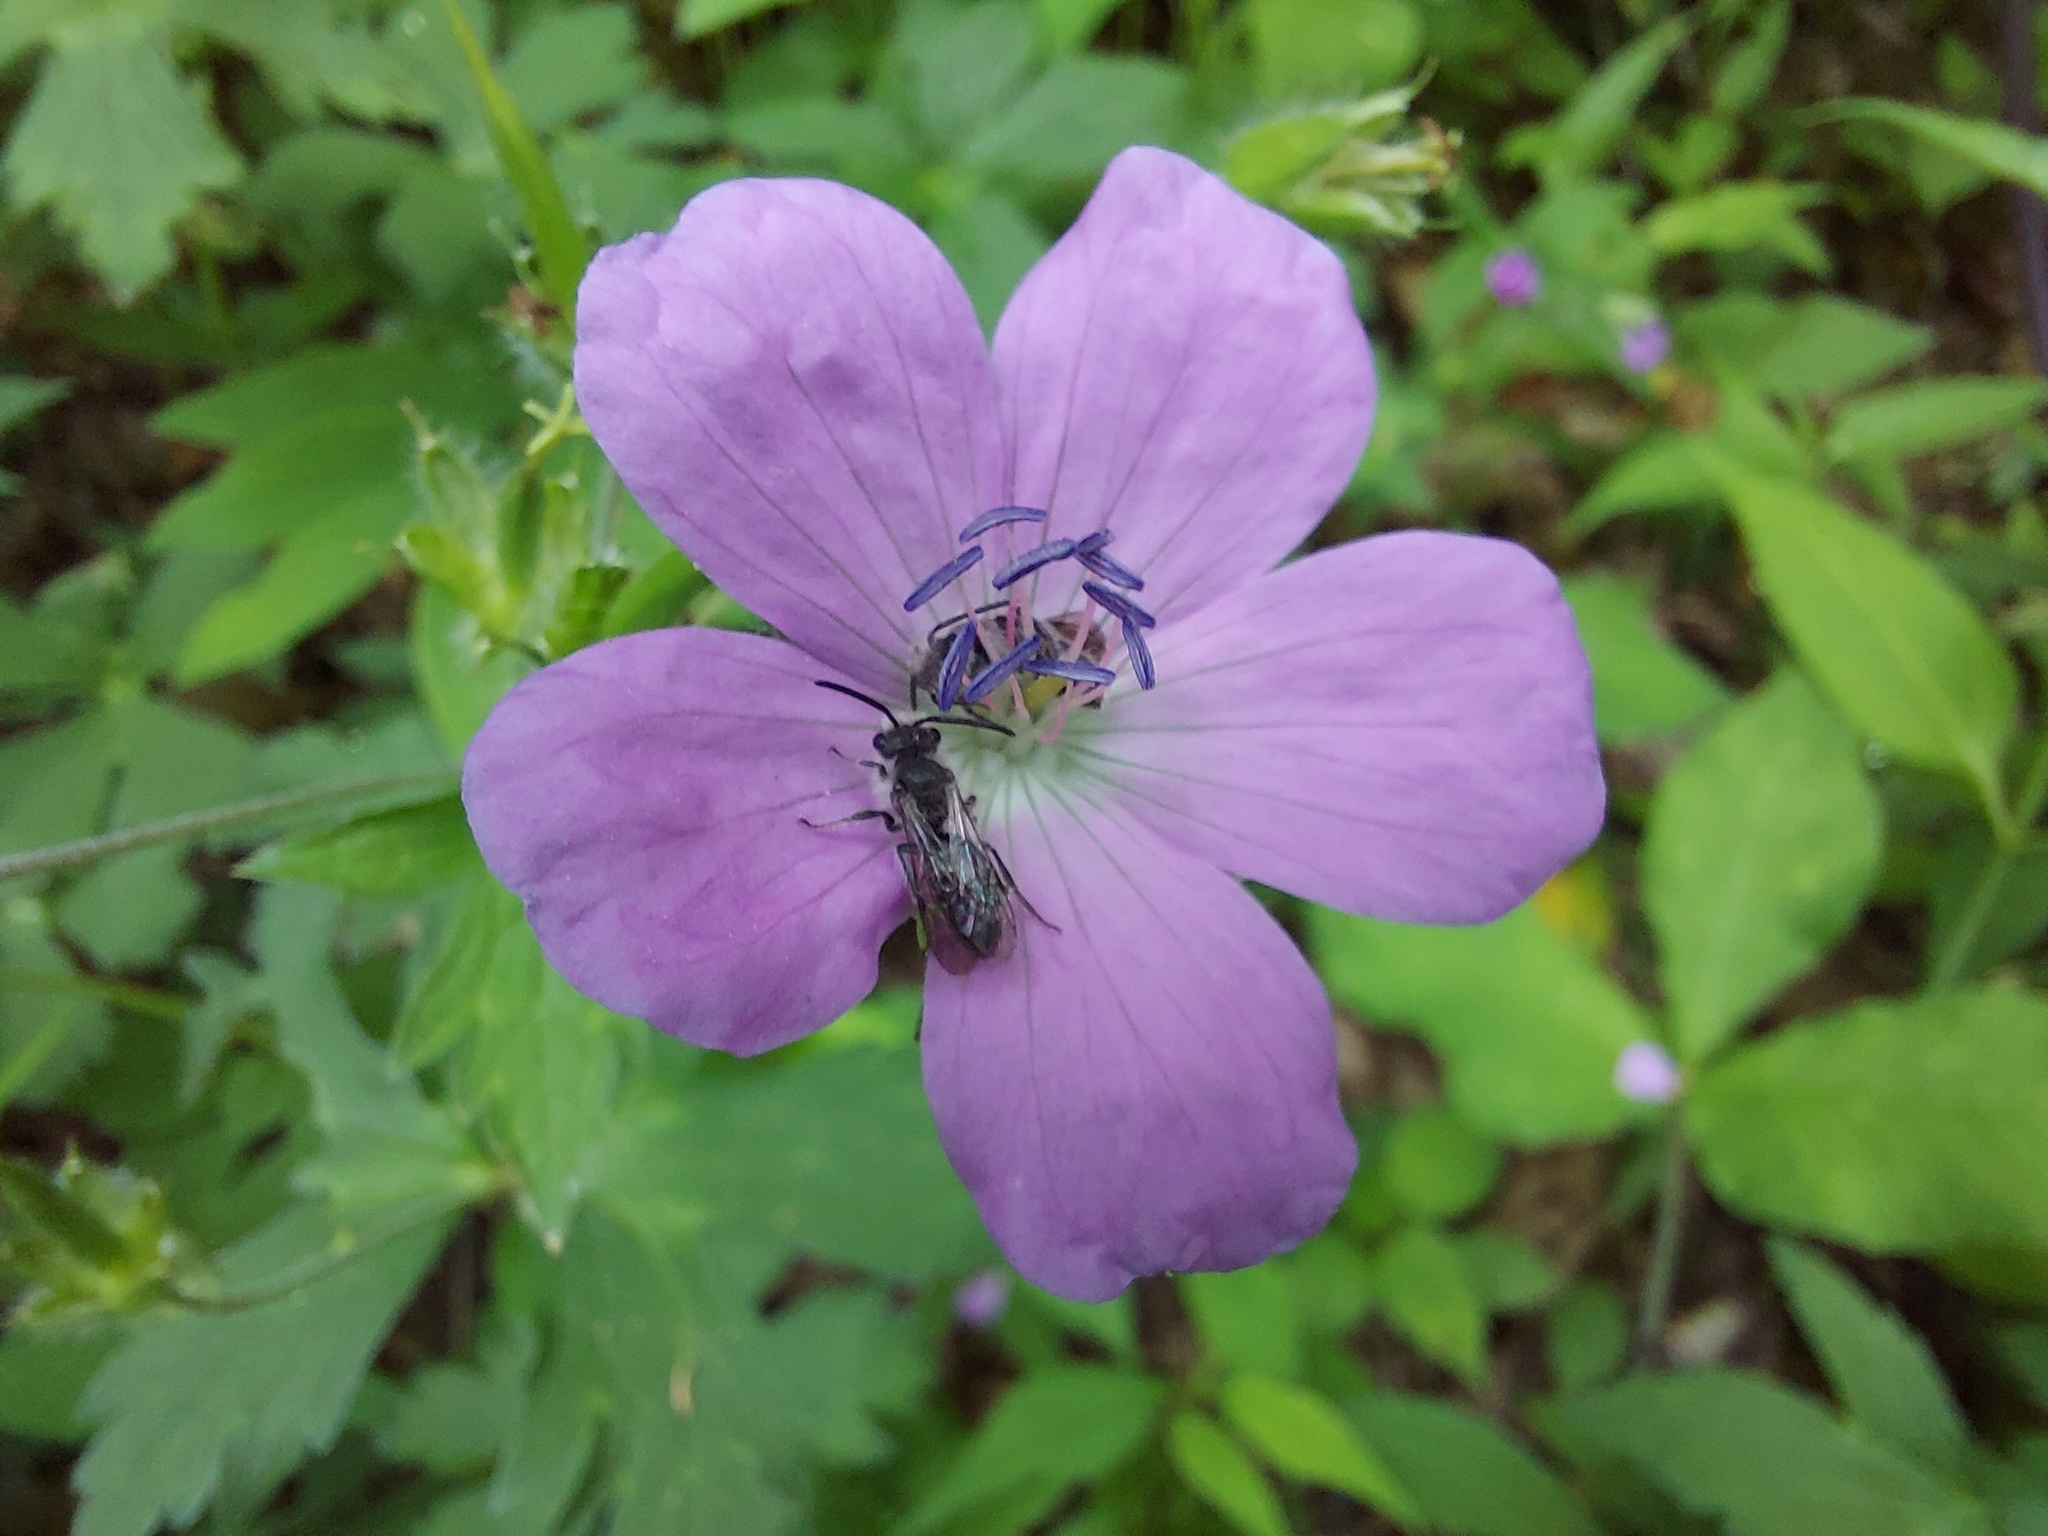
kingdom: Plantae
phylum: Tracheophyta
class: Magnoliopsida
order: Geraniales
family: Geraniaceae
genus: Geranium
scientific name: Geranium maculatum
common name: Spotted geranium
